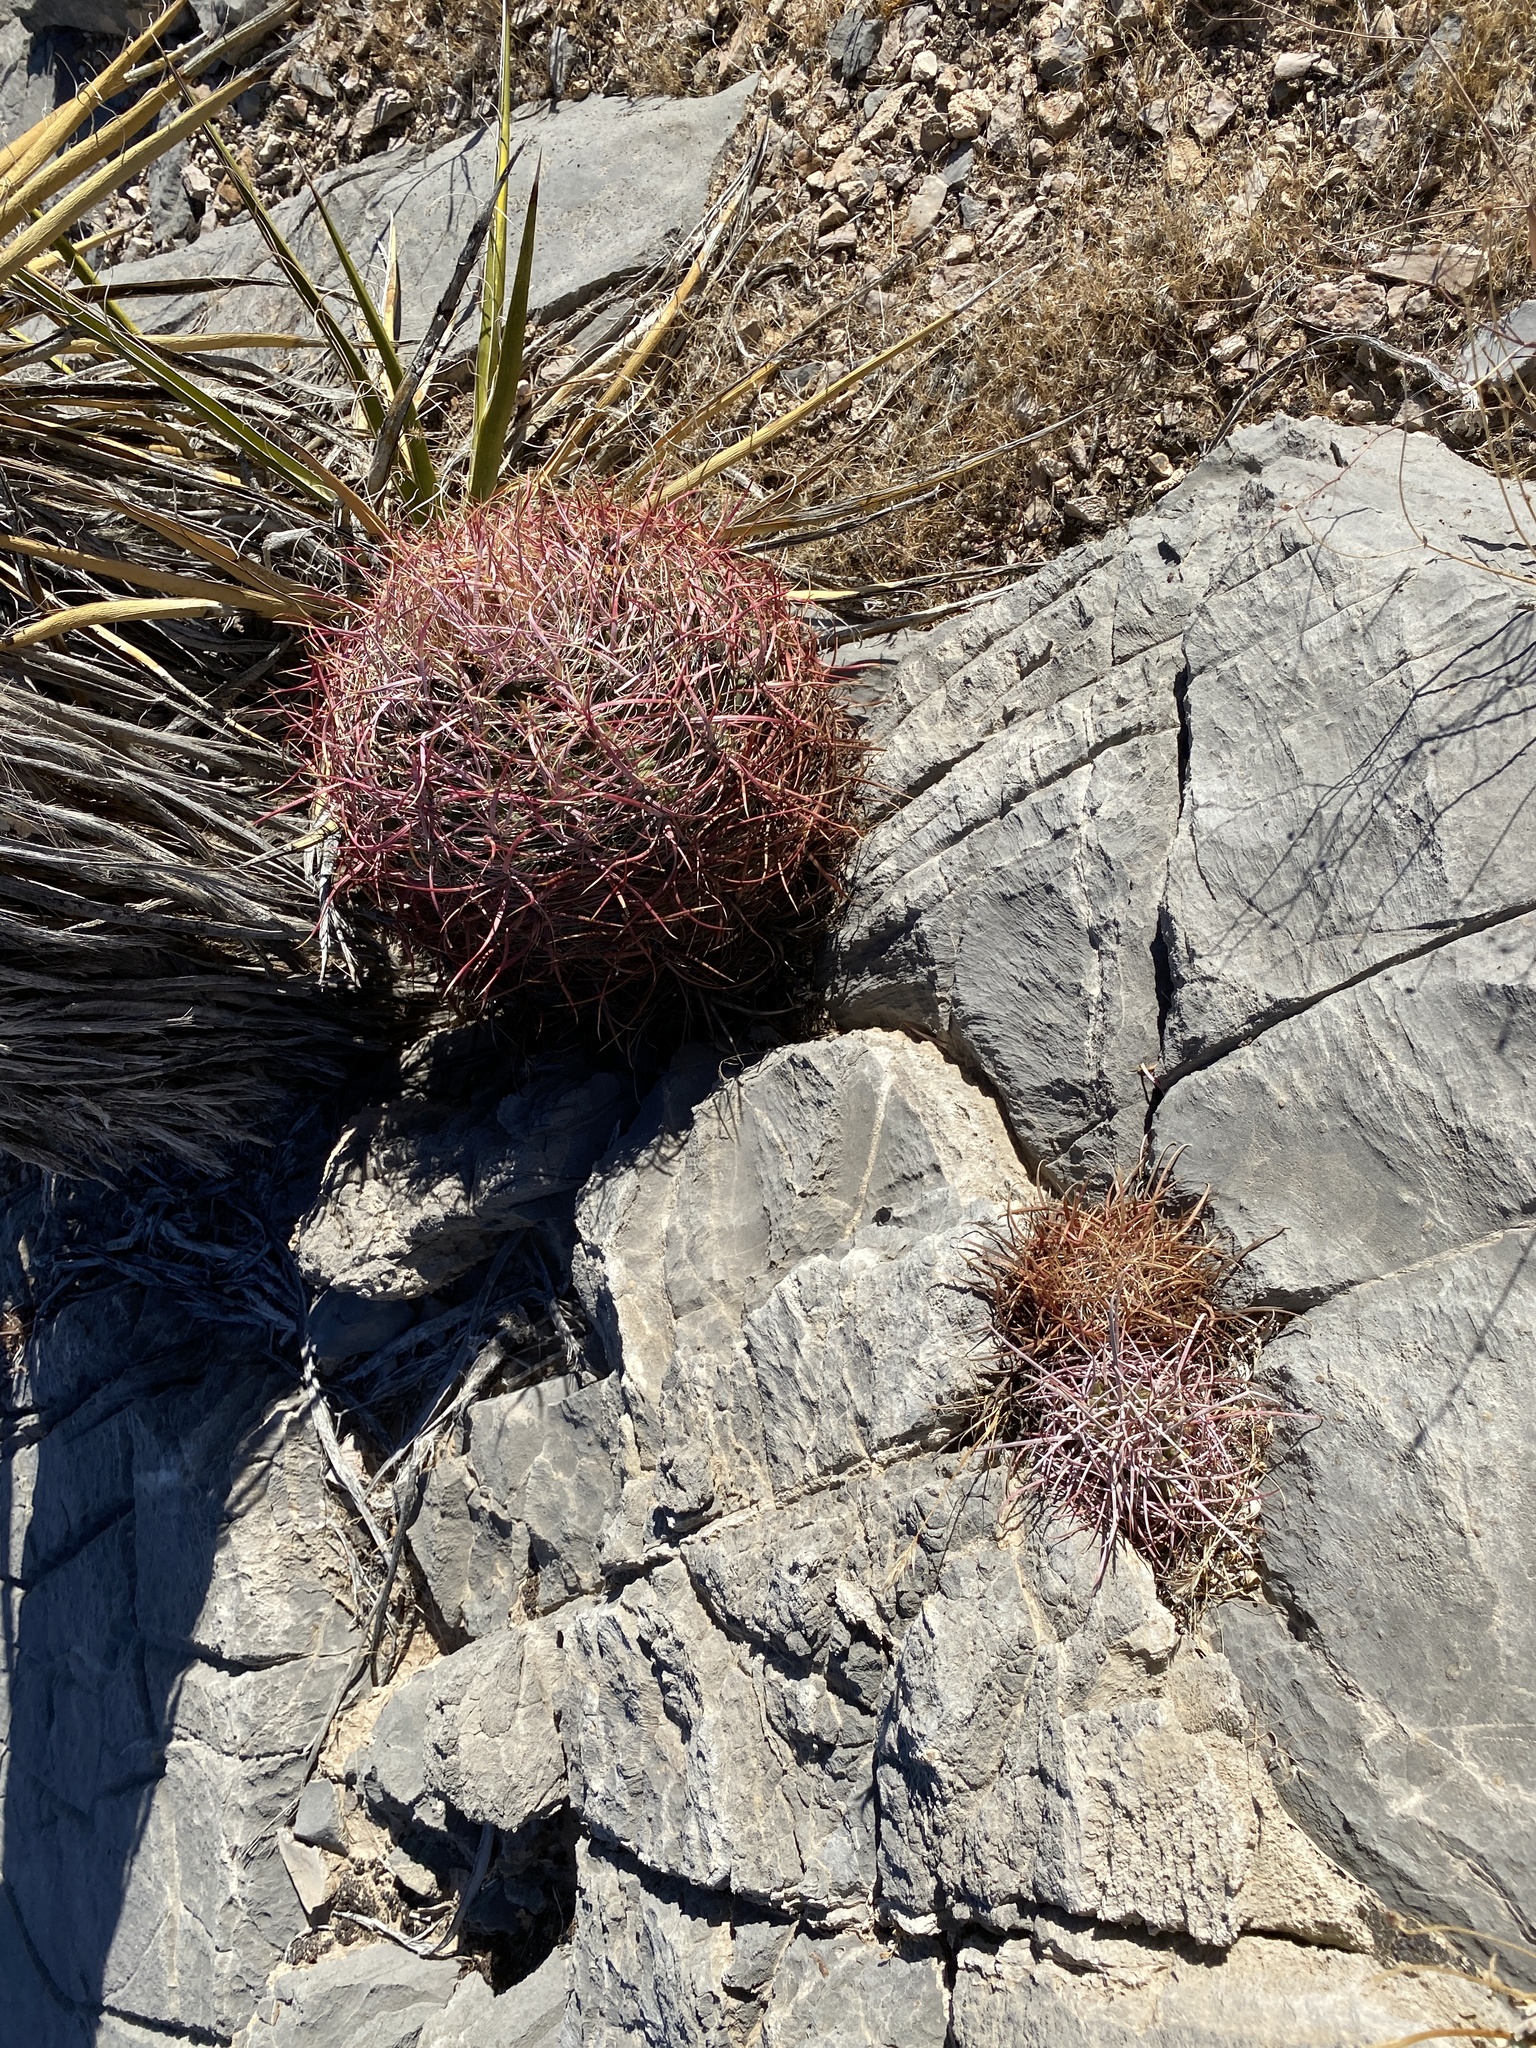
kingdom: Plantae
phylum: Tracheophyta
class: Magnoliopsida
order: Caryophyllales
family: Cactaceae
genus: Ferocactus
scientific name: Ferocactus cylindraceus
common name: California barrel cactus
